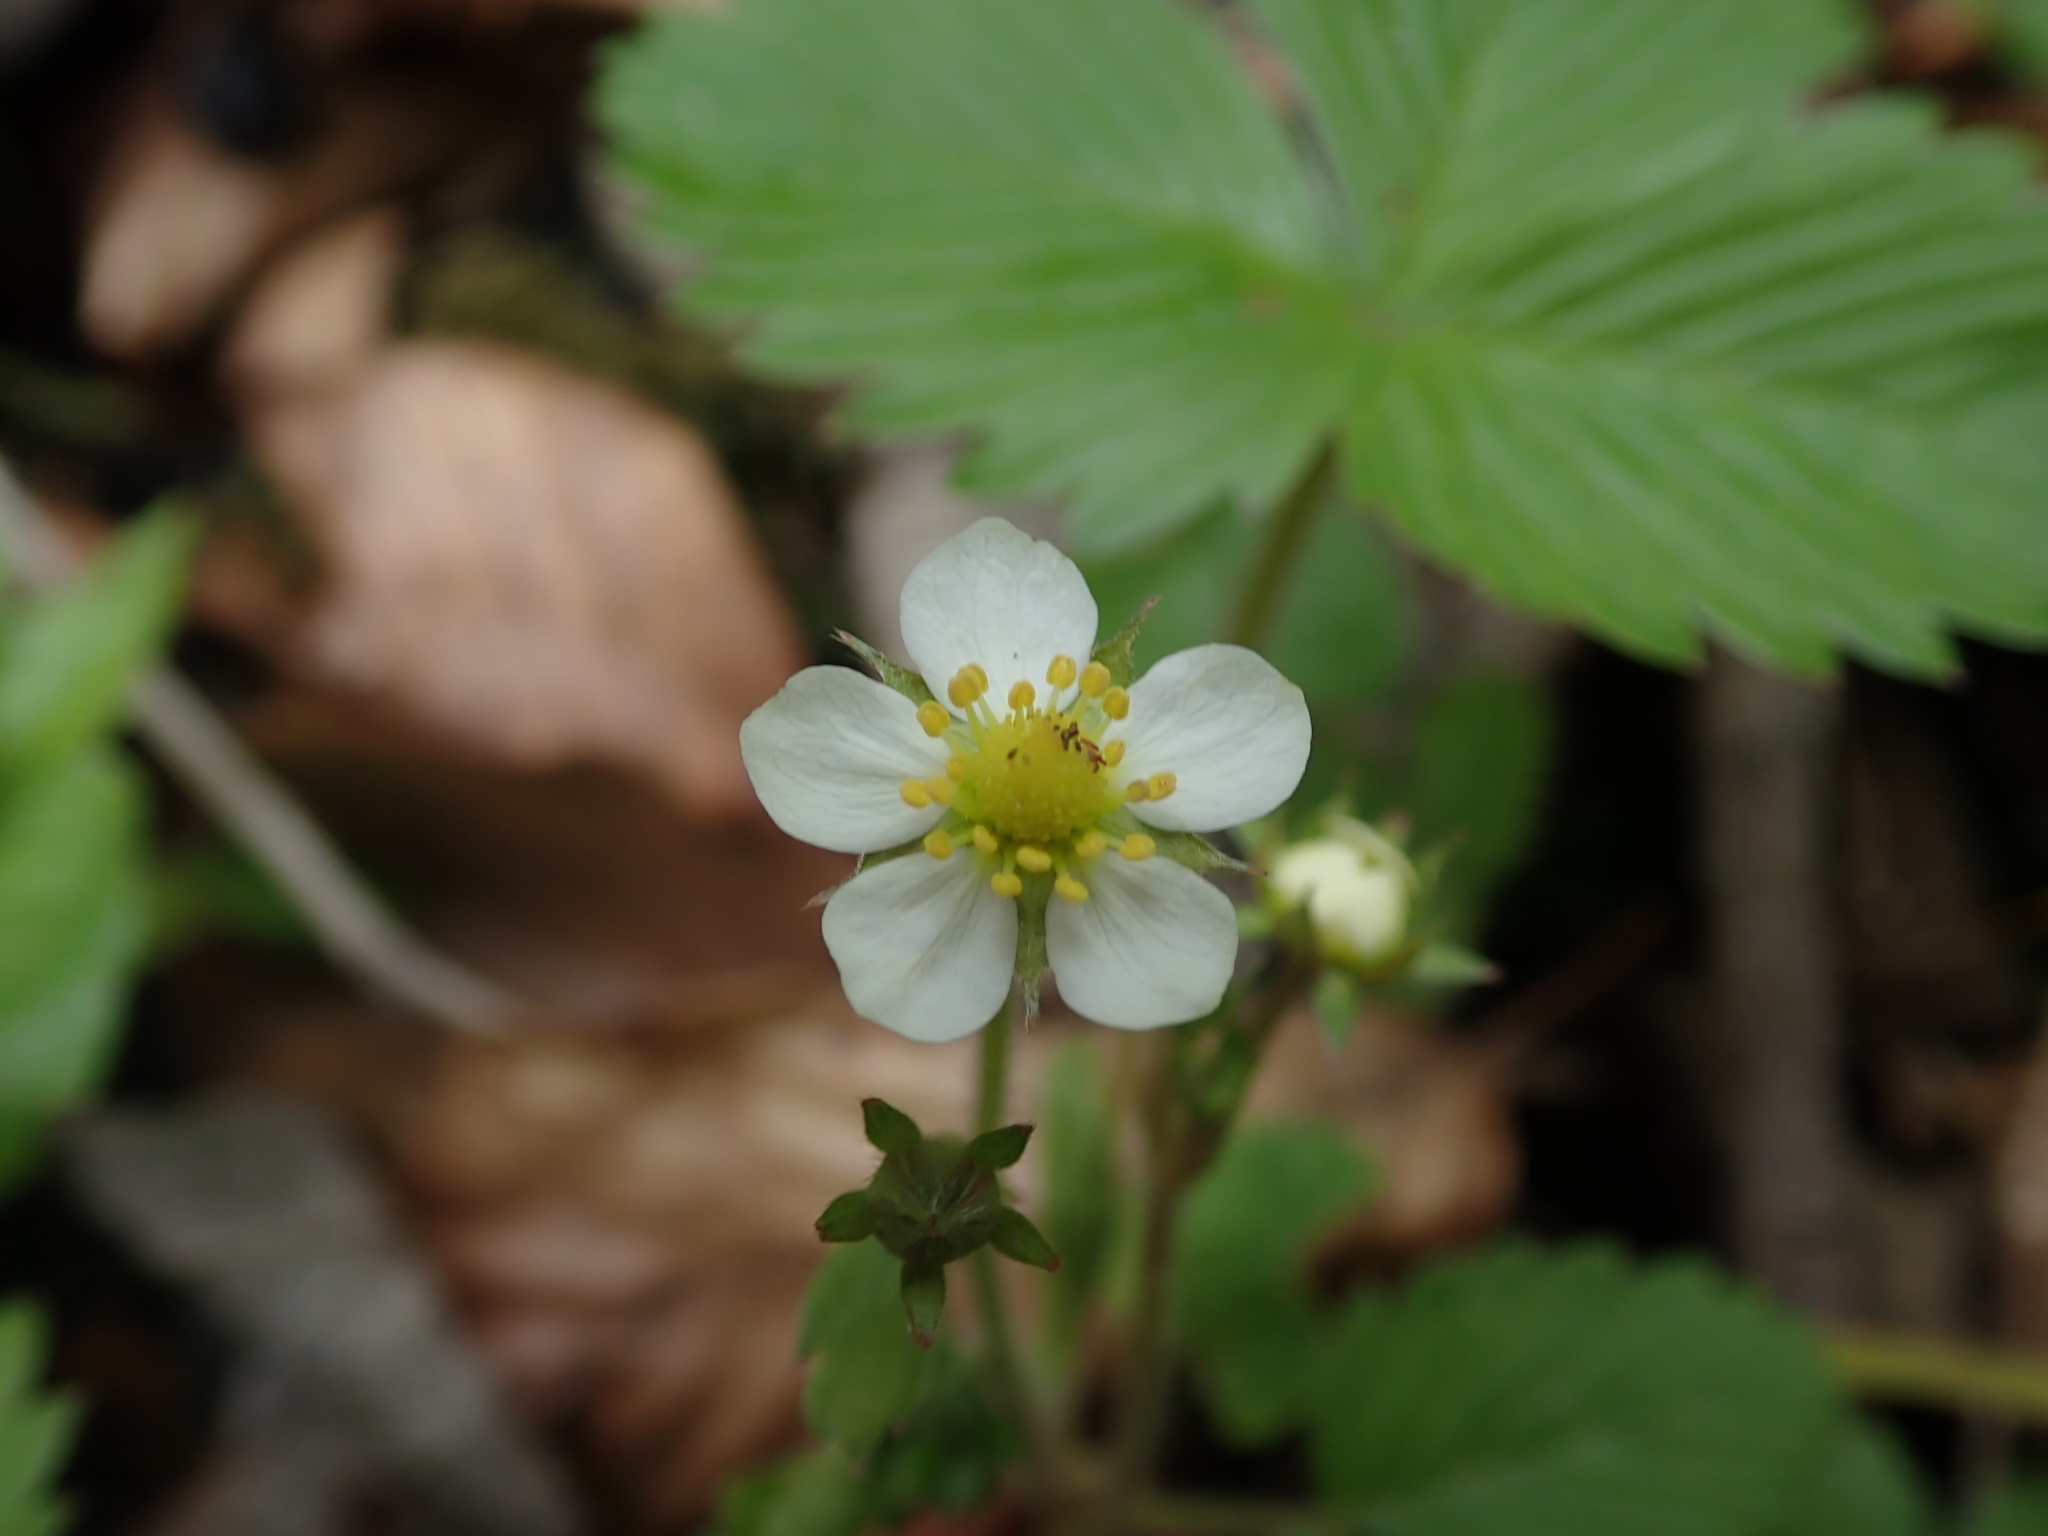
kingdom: Plantae
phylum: Tracheophyta
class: Magnoliopsida
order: Rosales
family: Rosaceae
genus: Fragaria
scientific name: Fragaria vesca
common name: Wild strawberry
